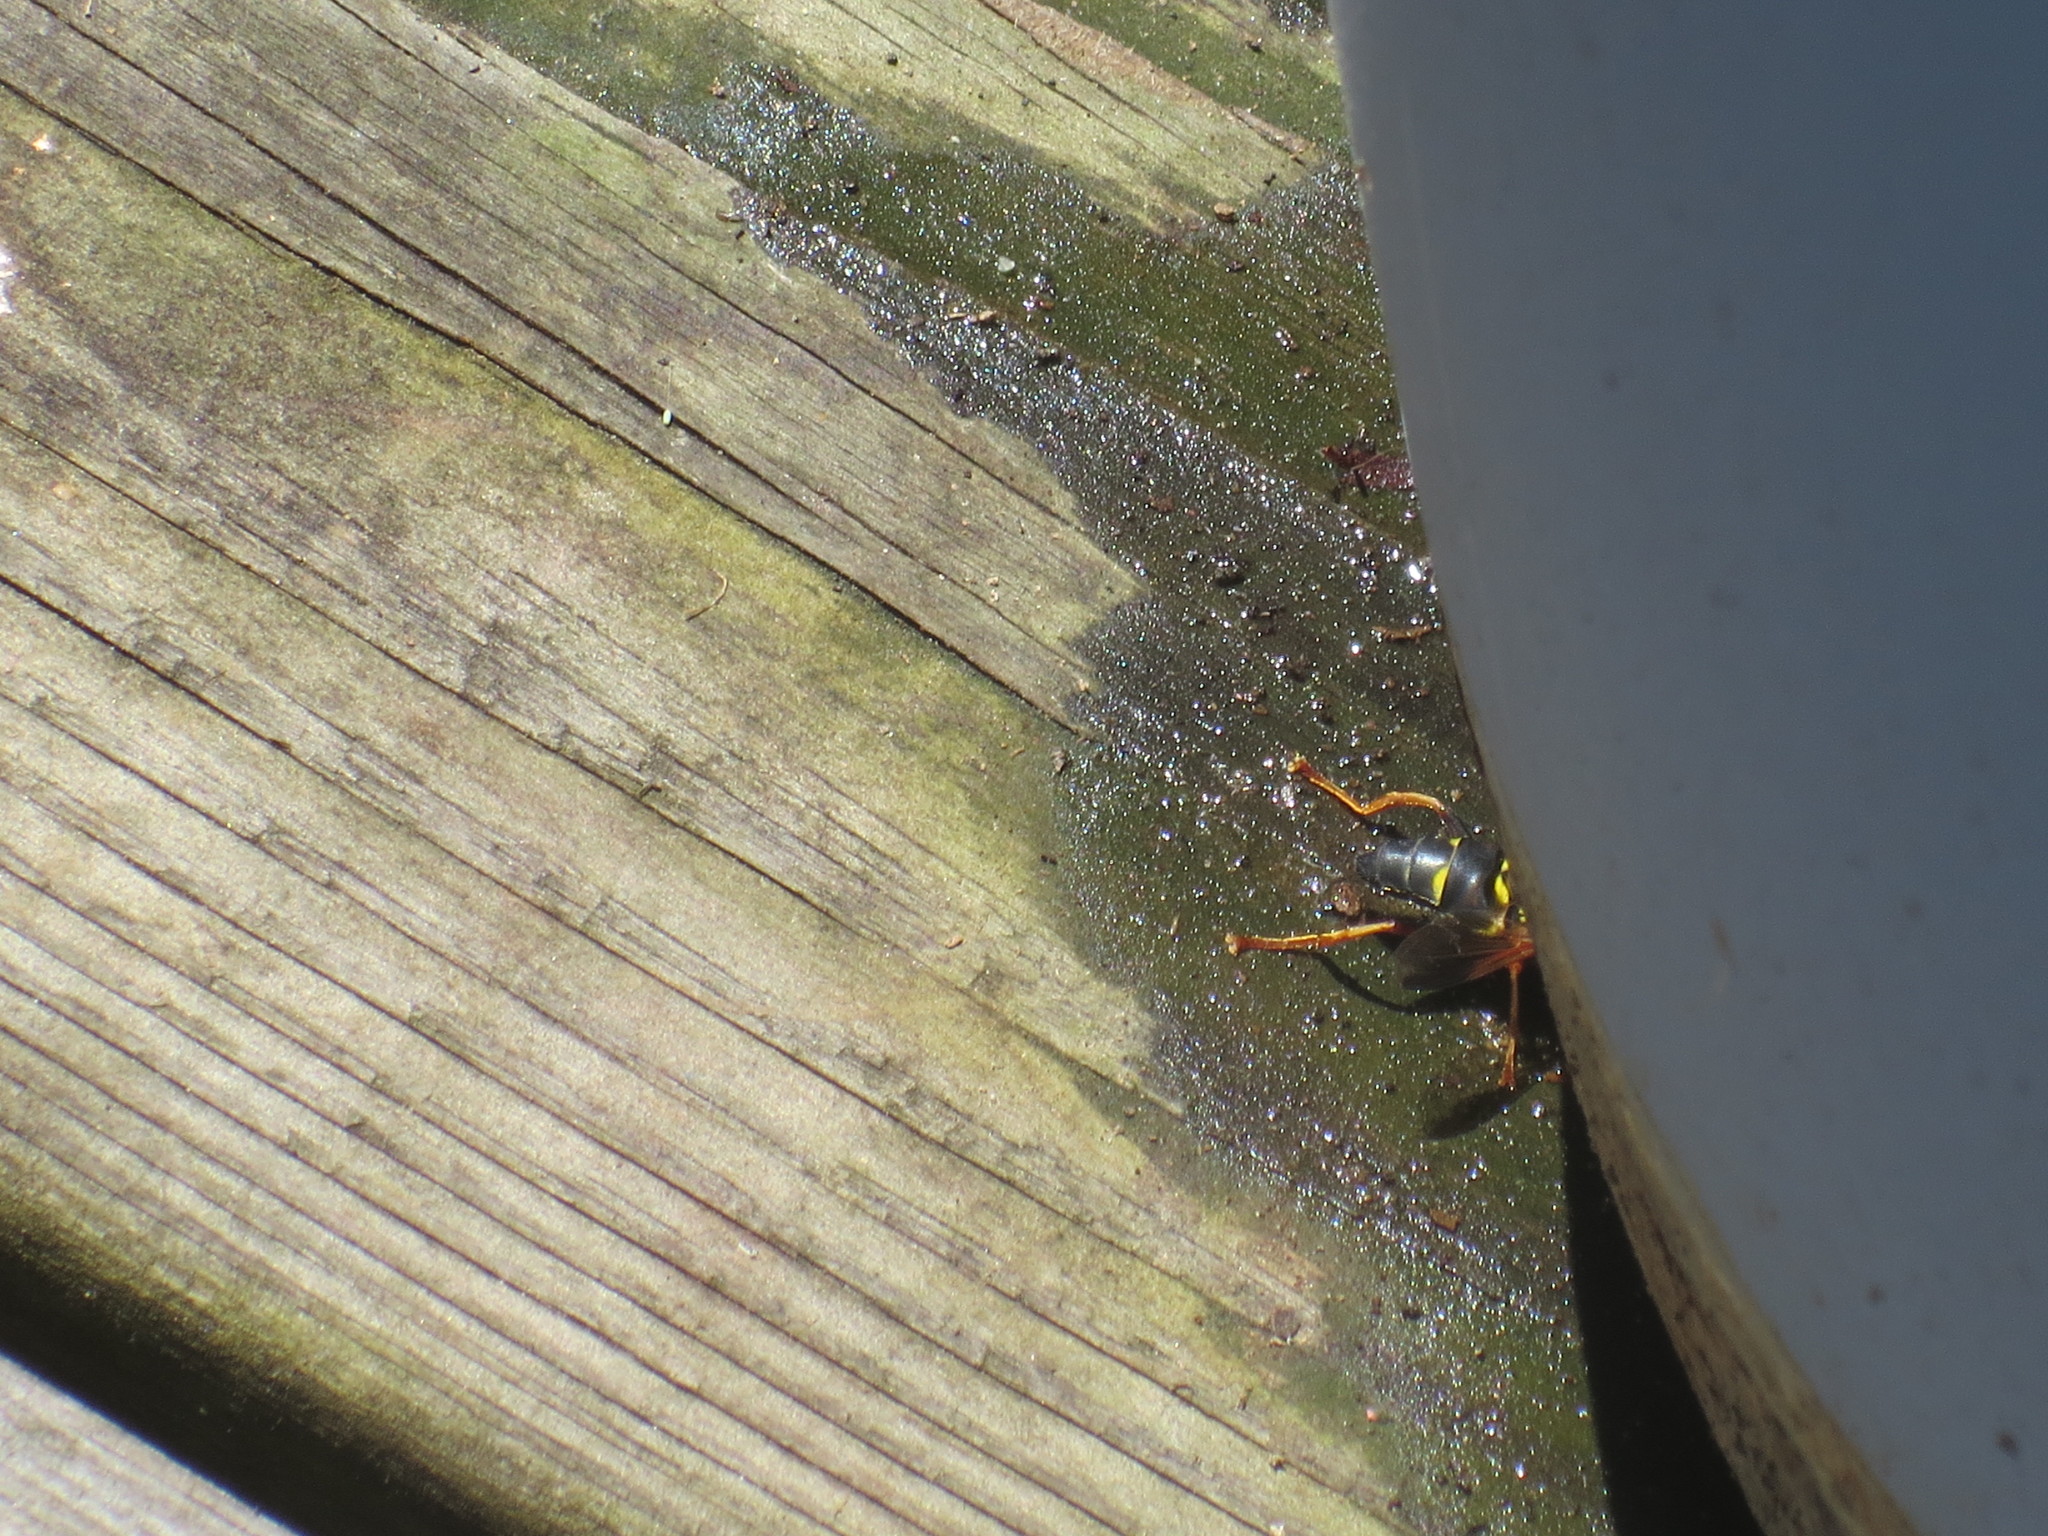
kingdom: Animalia
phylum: Arthropoda
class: Insecta
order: Diptera
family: Syrphidae
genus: Meromacrus
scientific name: Meromacrus acutus
